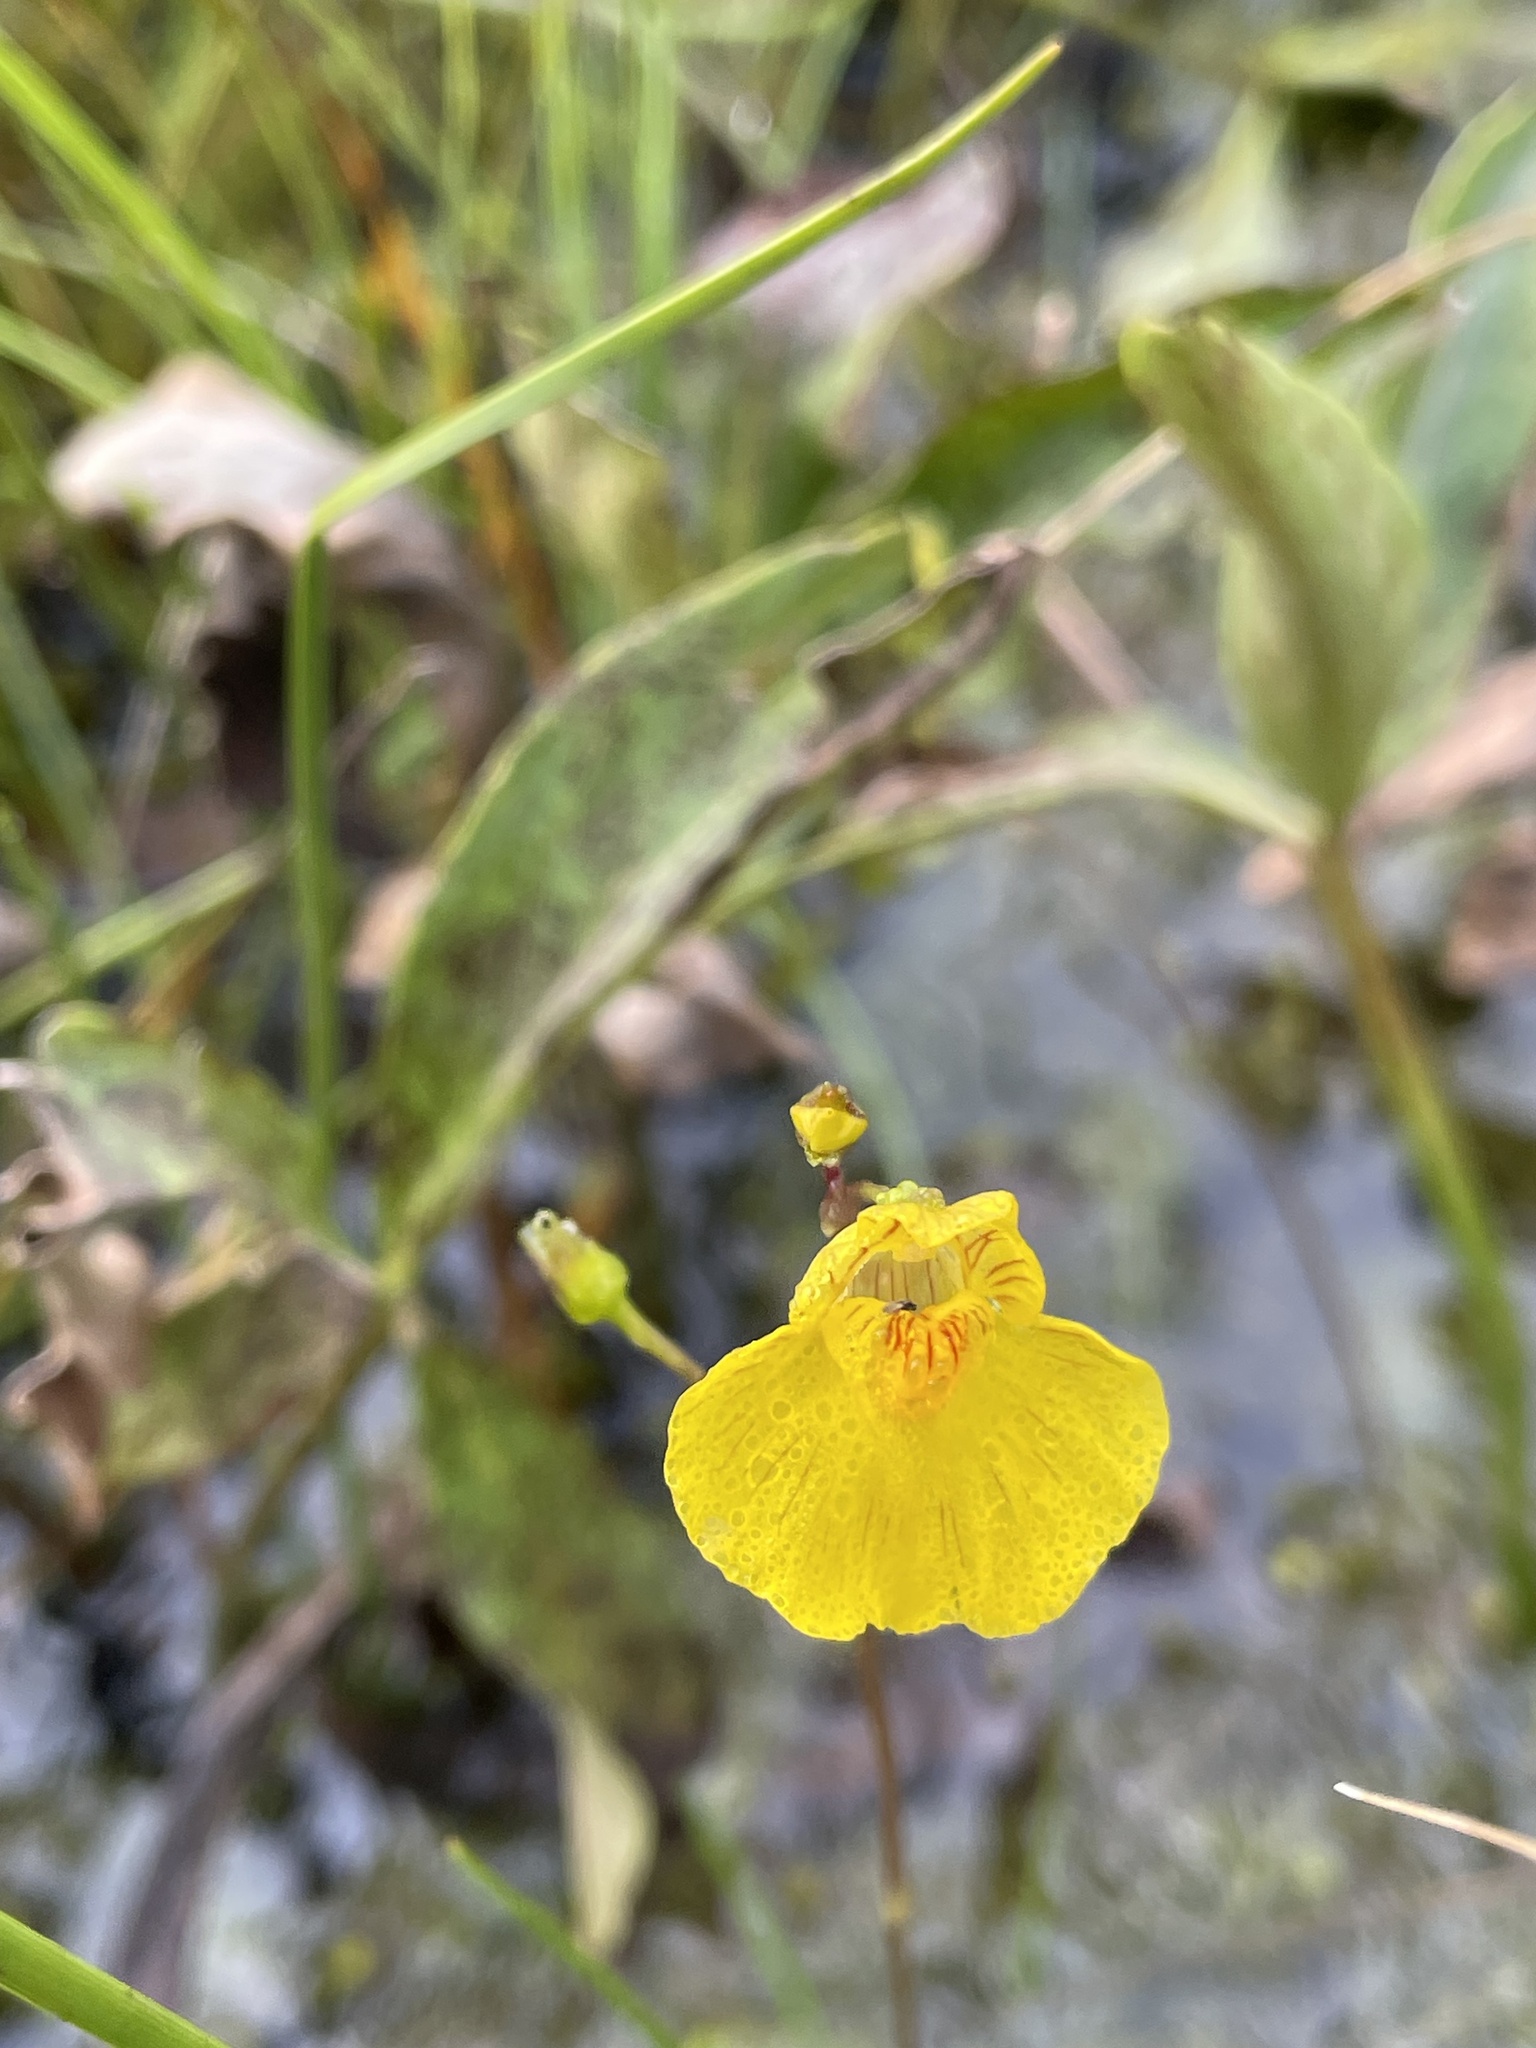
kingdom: Plantae
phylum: Tracheophyta
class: Magnoliopsida
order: Lamiales
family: Lentibulariaceae
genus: Utricularia
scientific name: Utricularia intermedia
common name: Intermediate bladderwort
